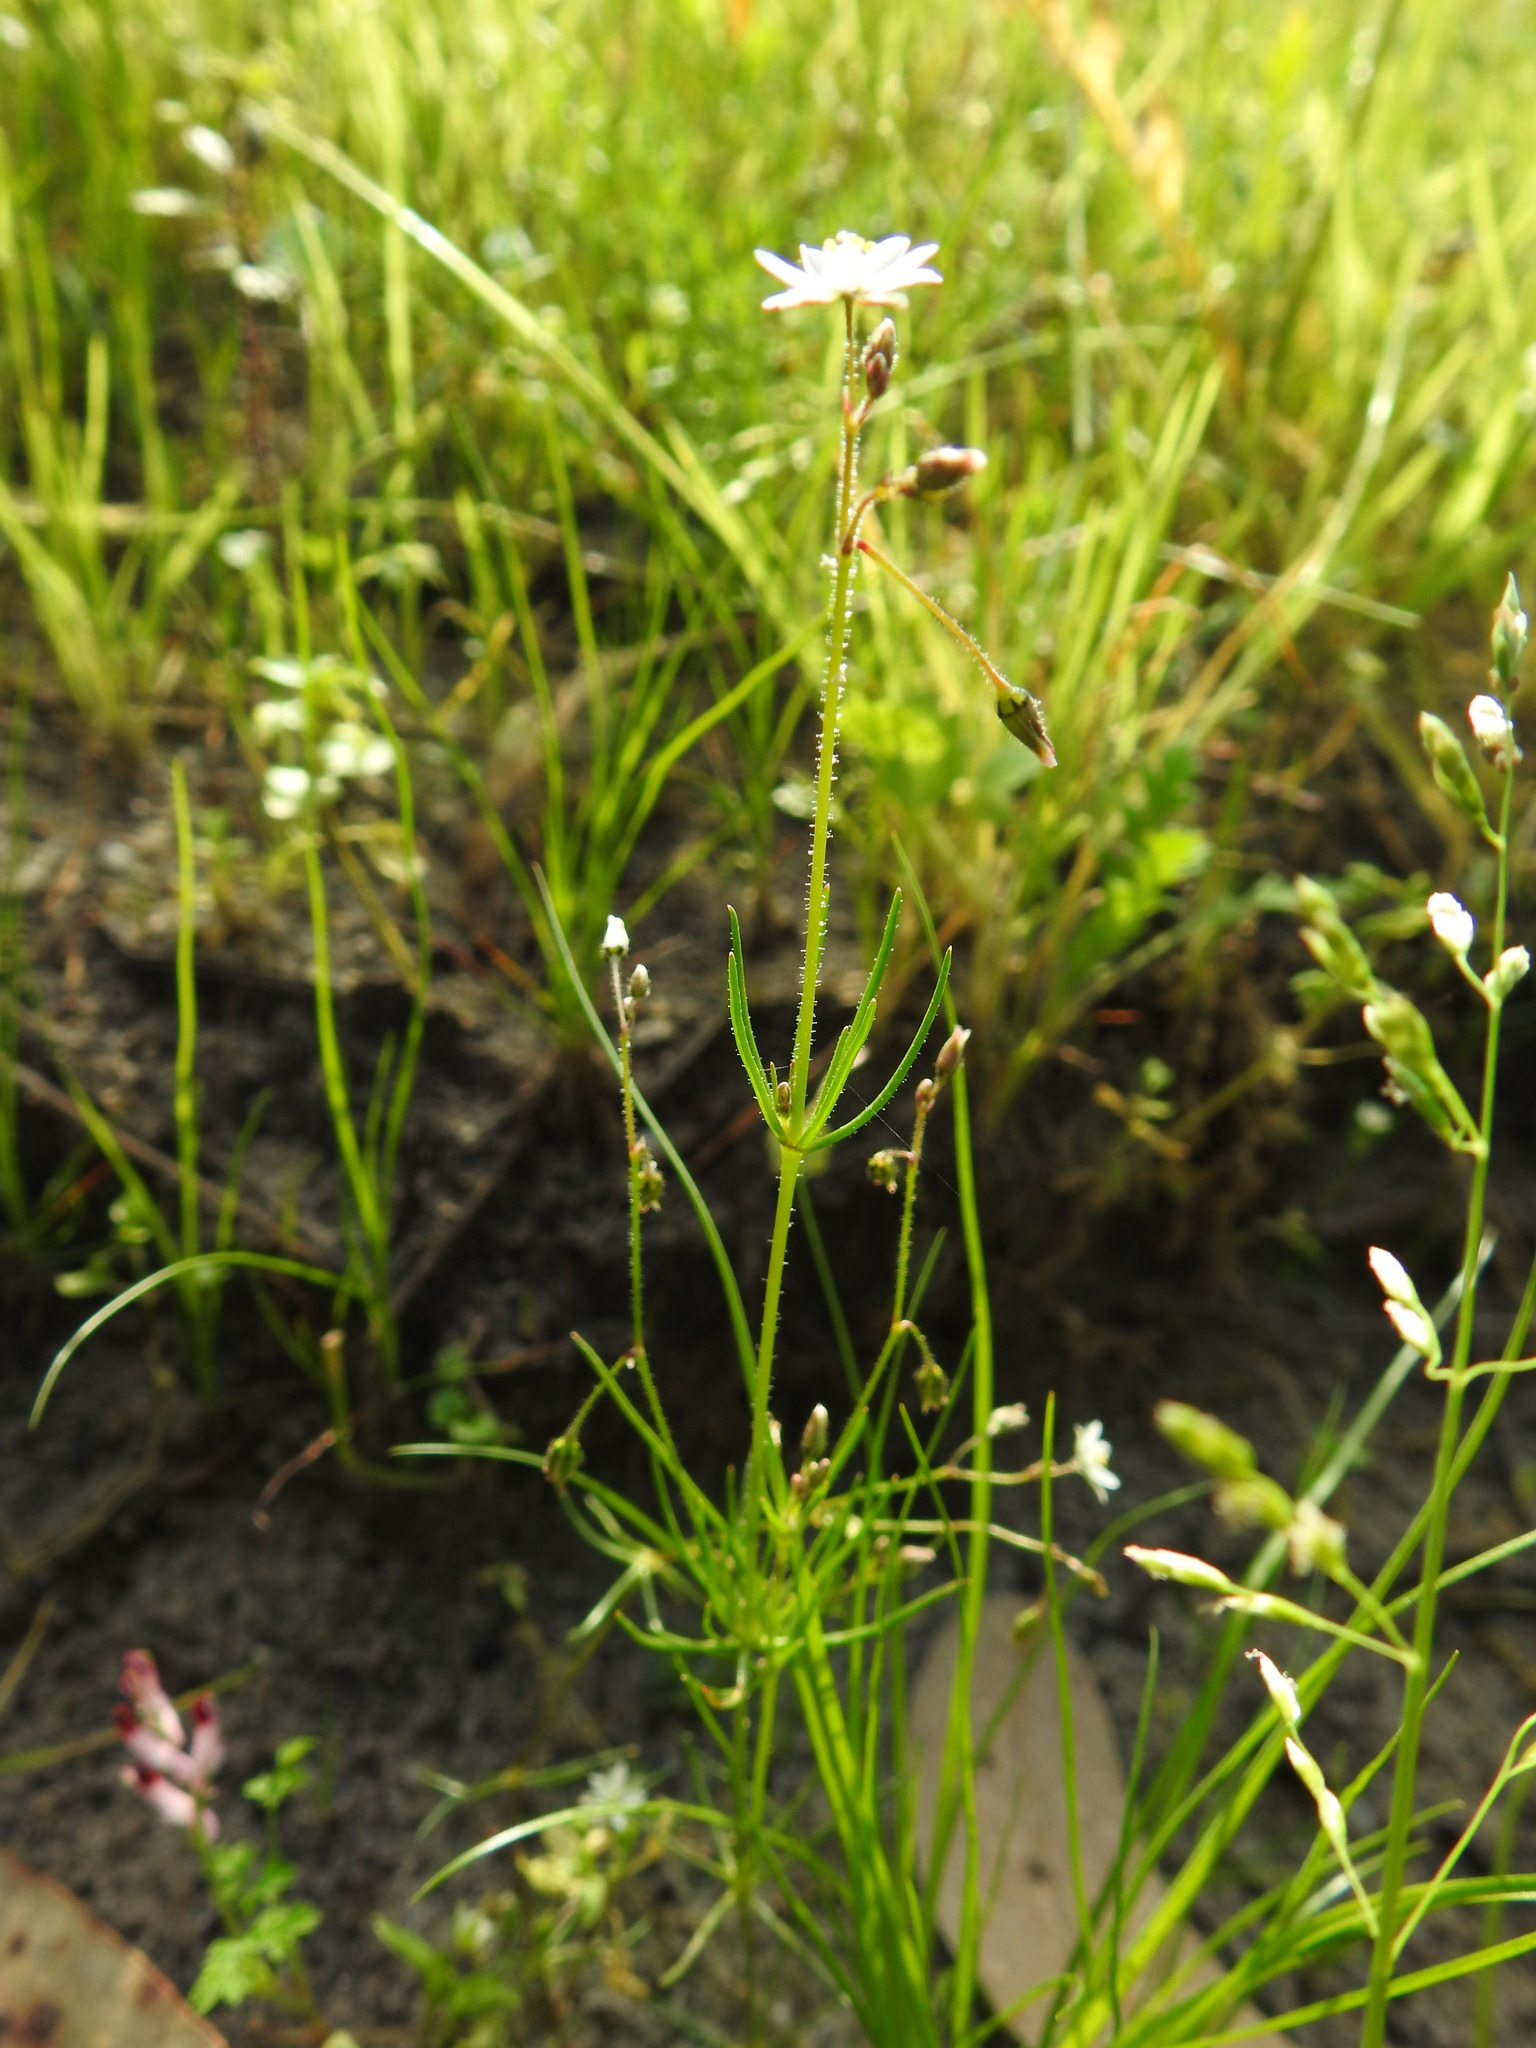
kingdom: Plantae
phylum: Tracheophyta
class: Magnoliopsida
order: Caryophyllales
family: Caryophyllaceae
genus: Spergula
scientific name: Spergula arvensis
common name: Corn spurrey
